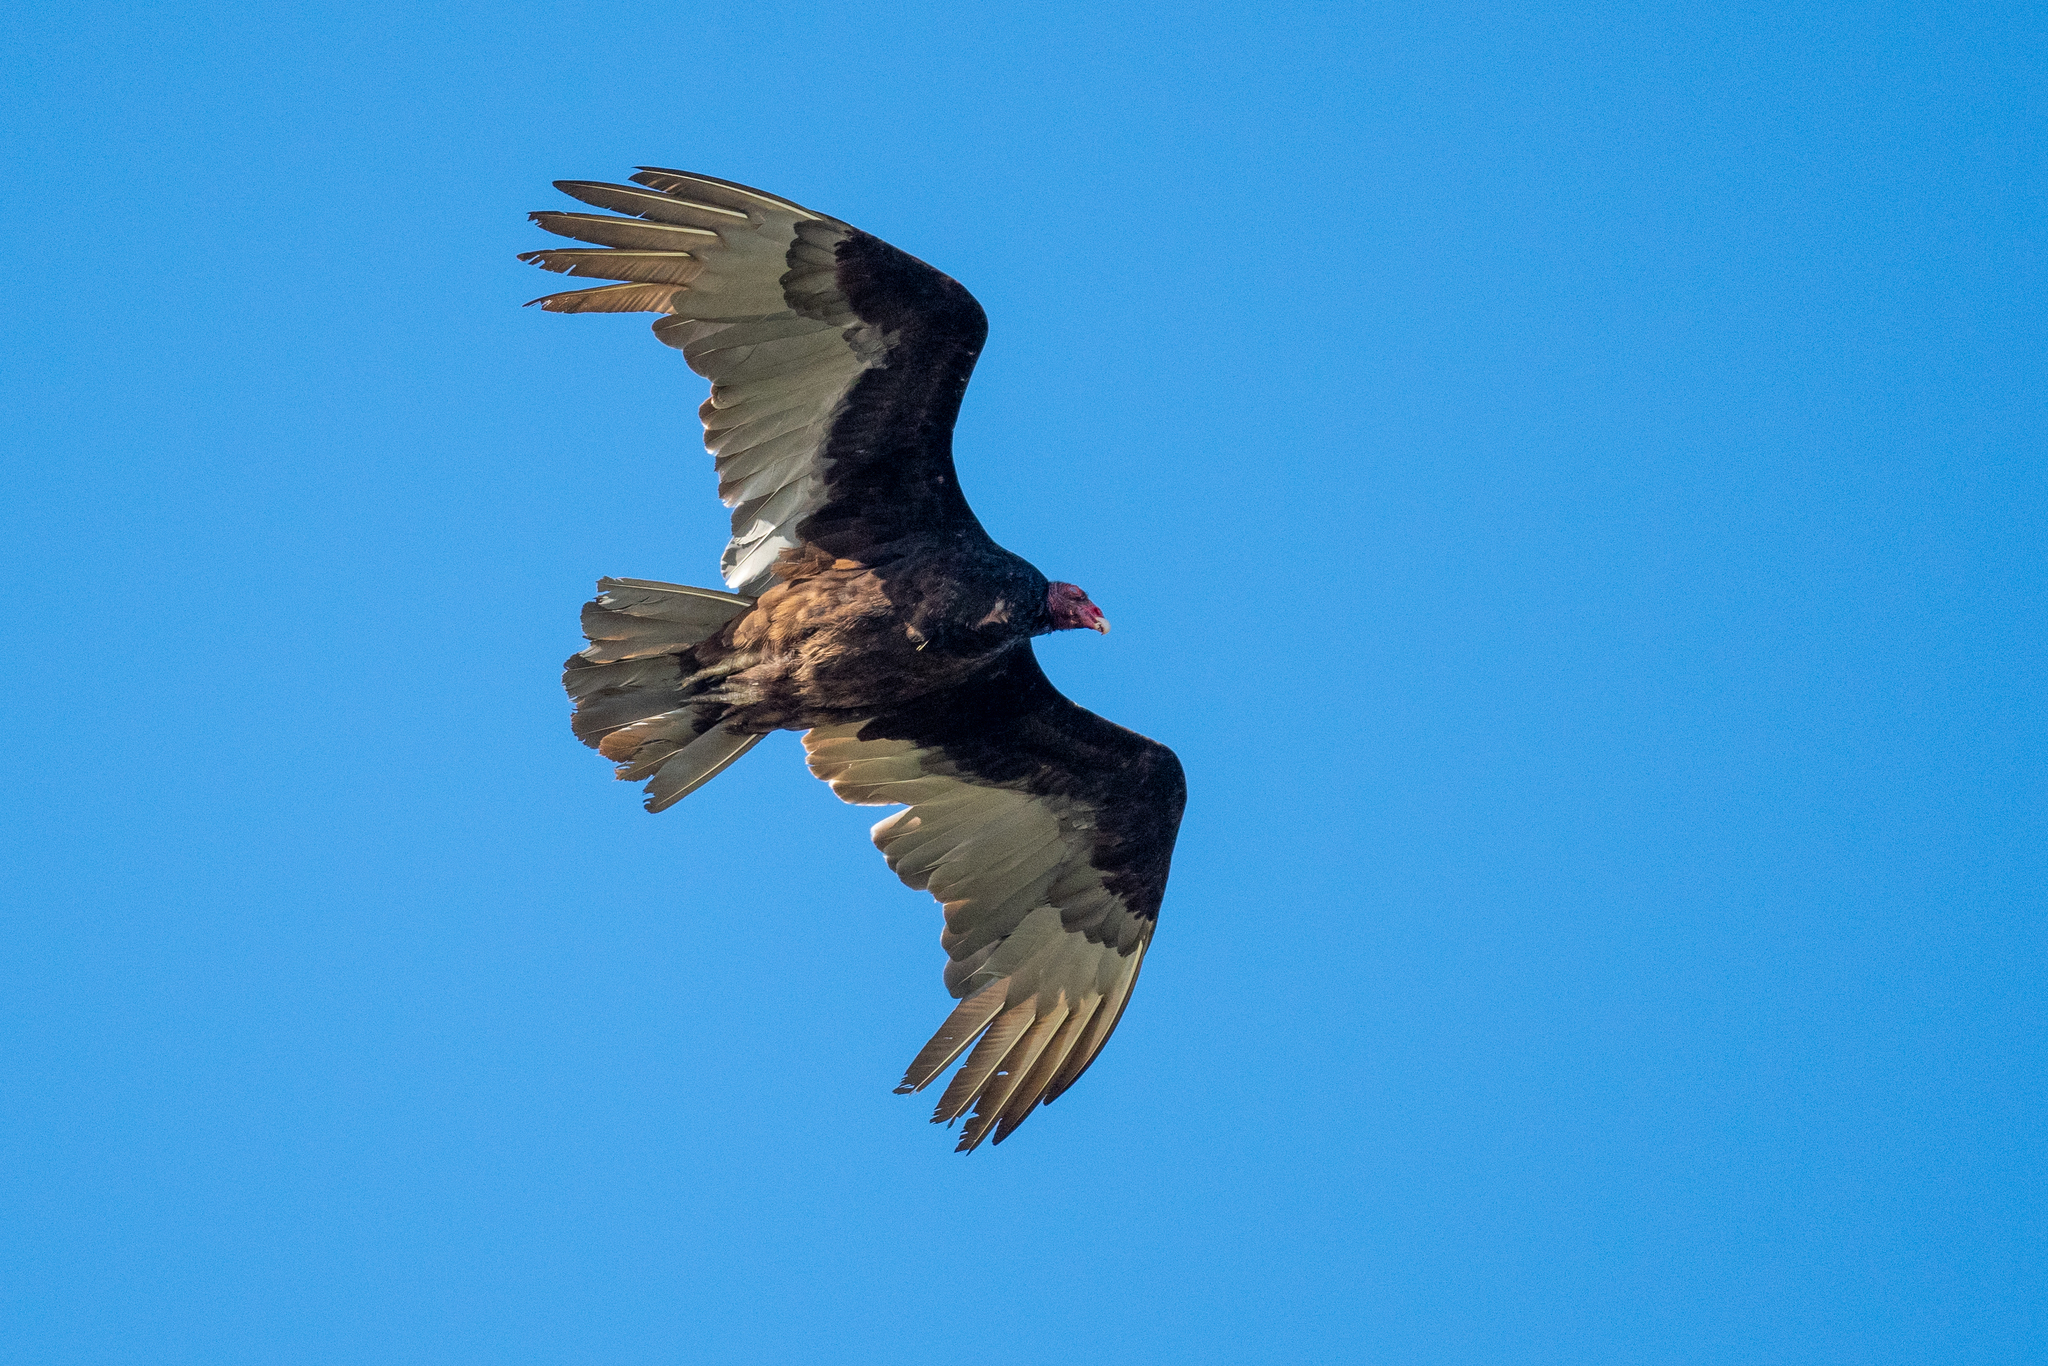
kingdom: Animalia
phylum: Chordata
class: Aves
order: Accipitriformes
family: Cathartidae
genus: Cathartes
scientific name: Cathartes aura
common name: Turkey vulture
